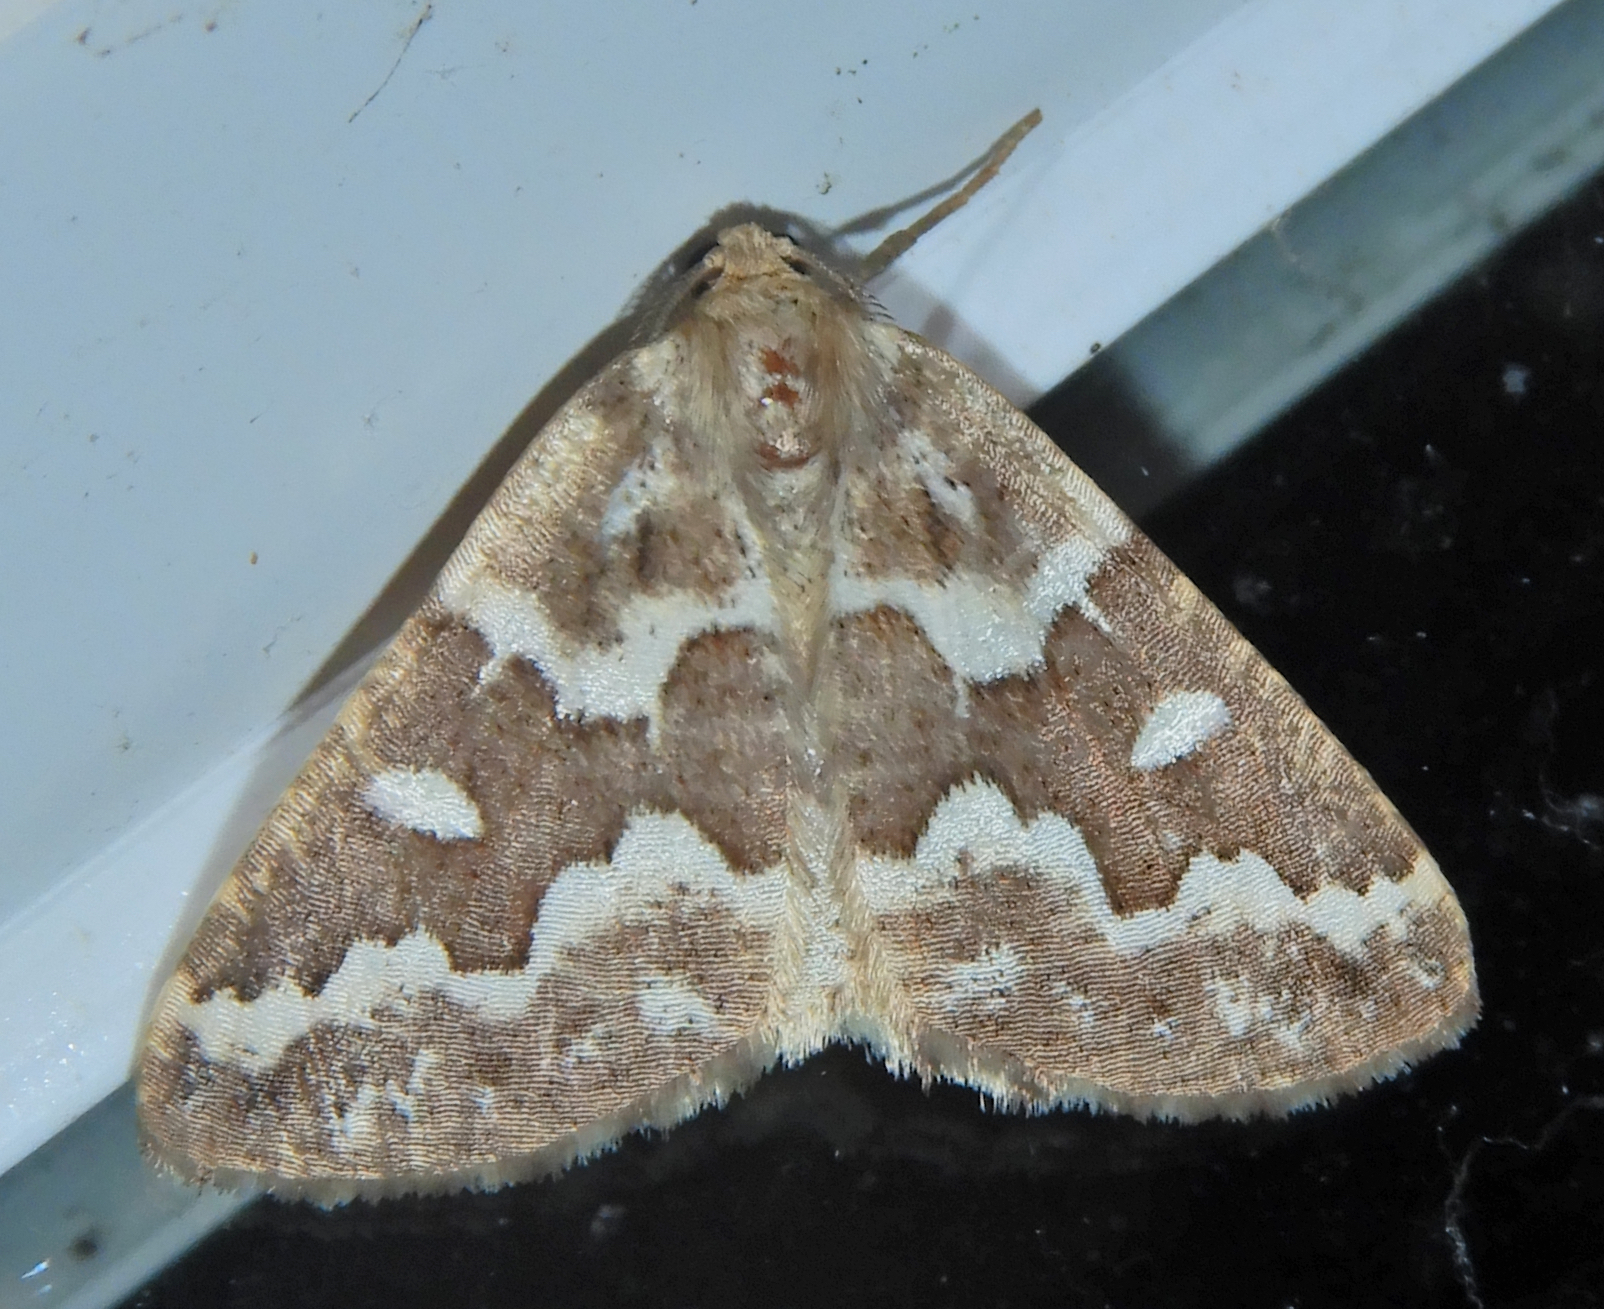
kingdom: Animalia
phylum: Arthropoda
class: Insecta
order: Lepidoptera
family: Geometridae
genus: Caripeta
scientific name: Caripeta divisata
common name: Gray spruce looper
